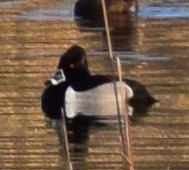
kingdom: Animalia
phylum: Chordata
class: Aves
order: Anseriformes
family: Anatidae
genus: Aythya
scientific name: Aythya collaris
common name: Ring-necked duck
